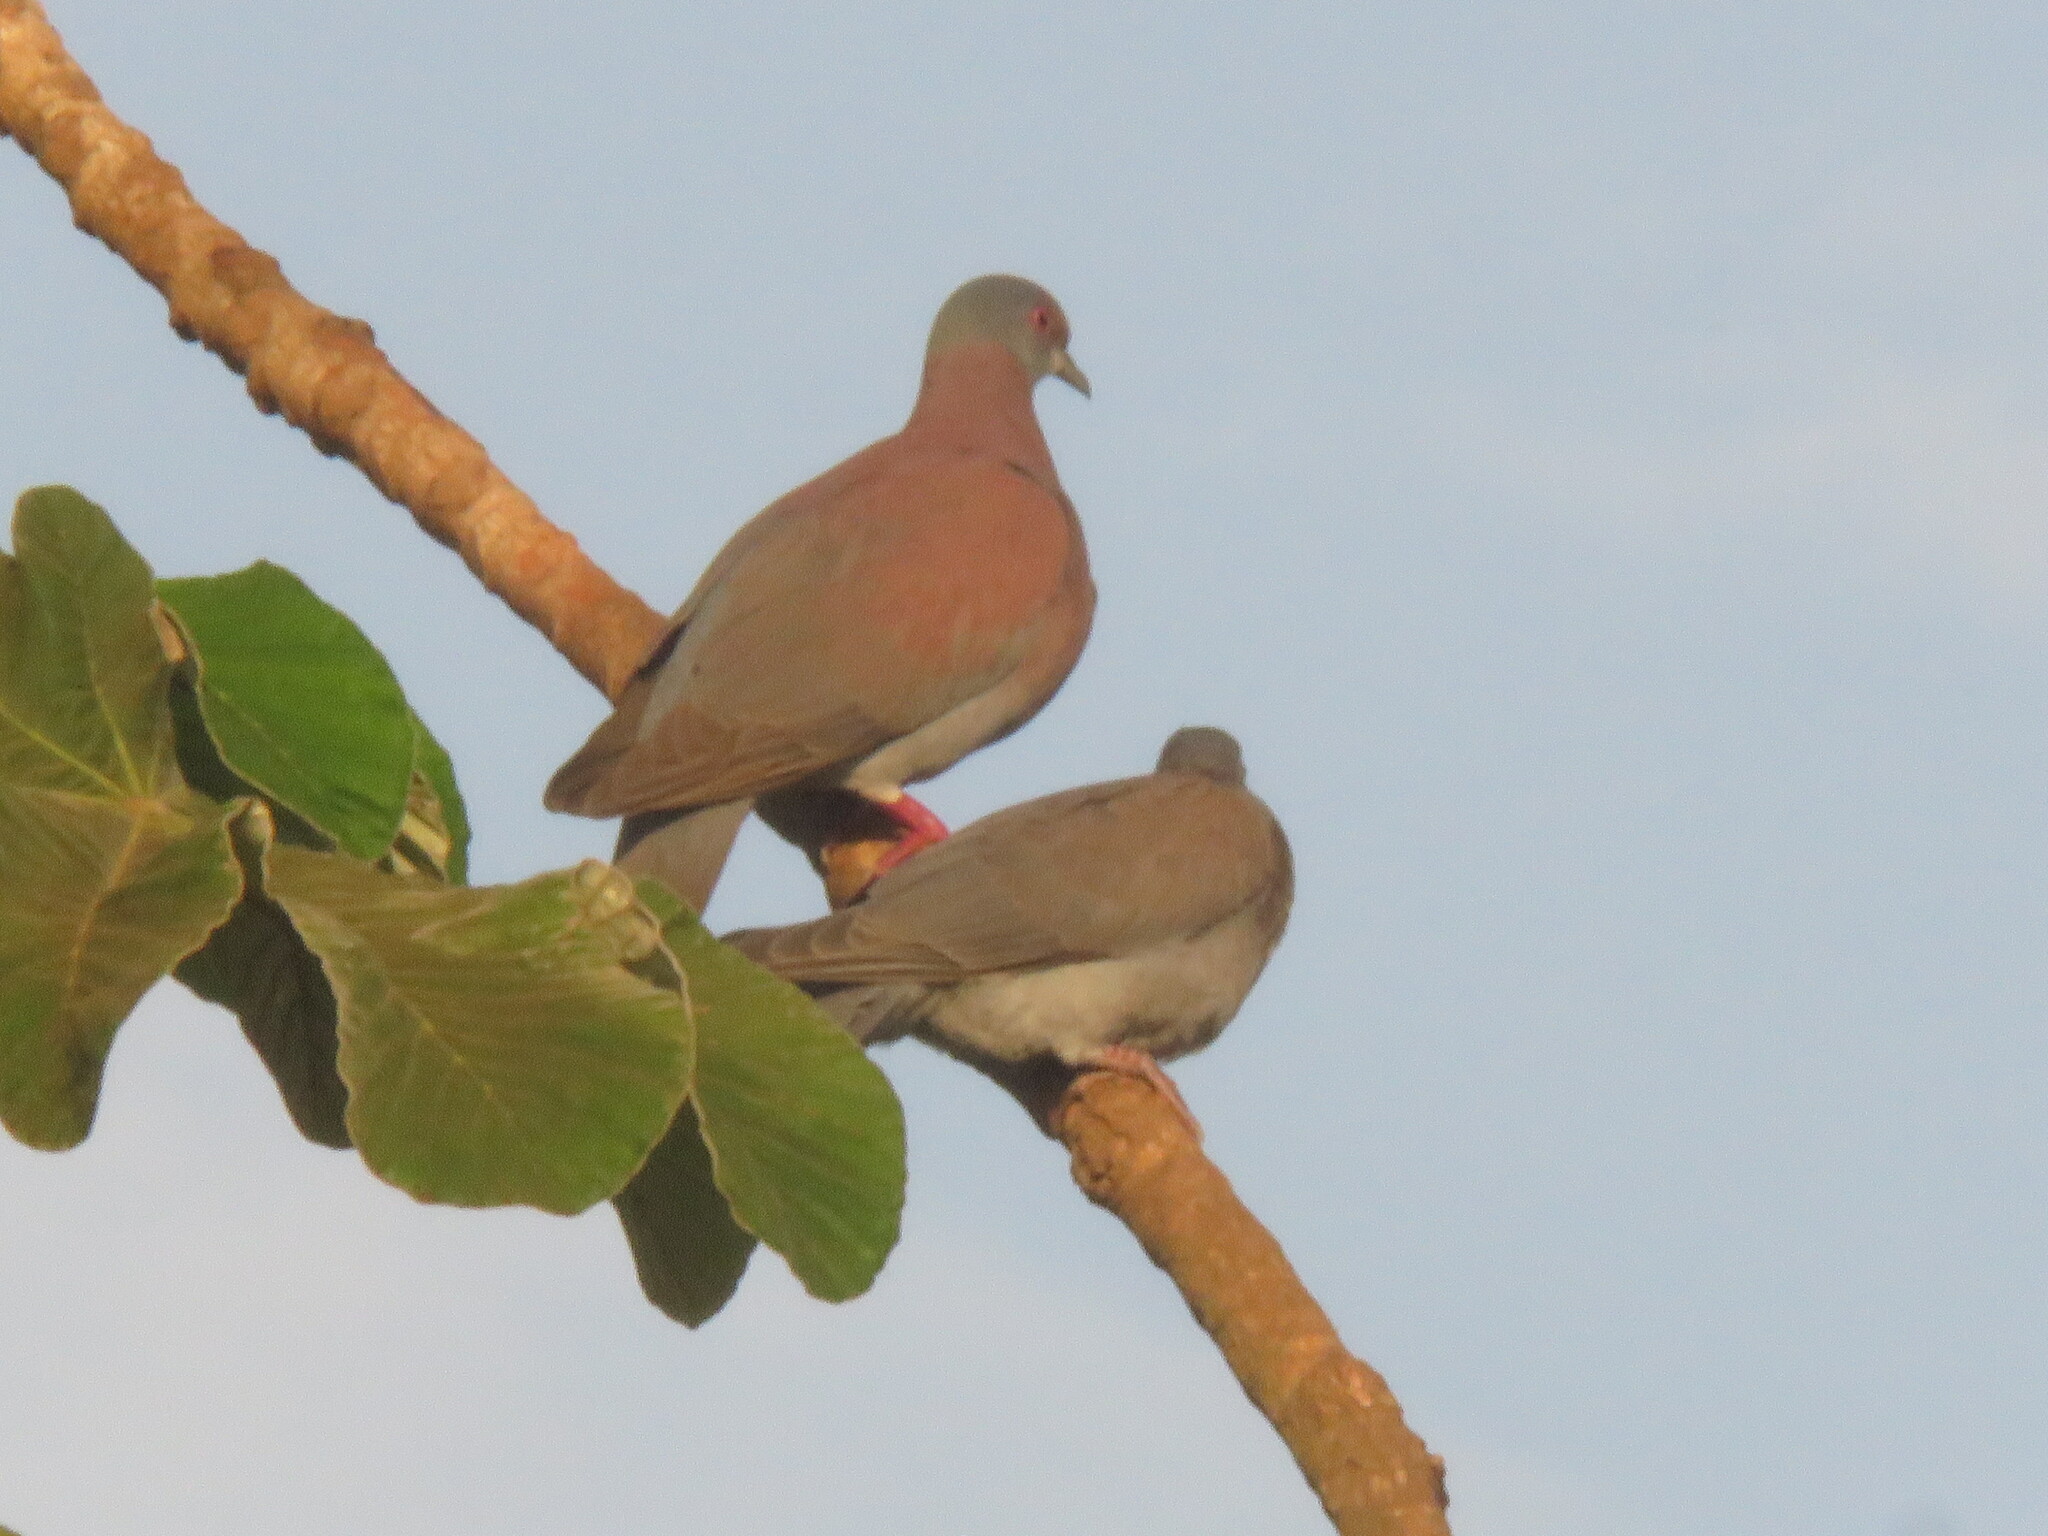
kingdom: Animalia
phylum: Chordata
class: Aves
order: Columbiformes
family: Columbidae
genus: Patagioenas
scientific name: Patagioenas cayennensis
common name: Pale-vented pigeon
